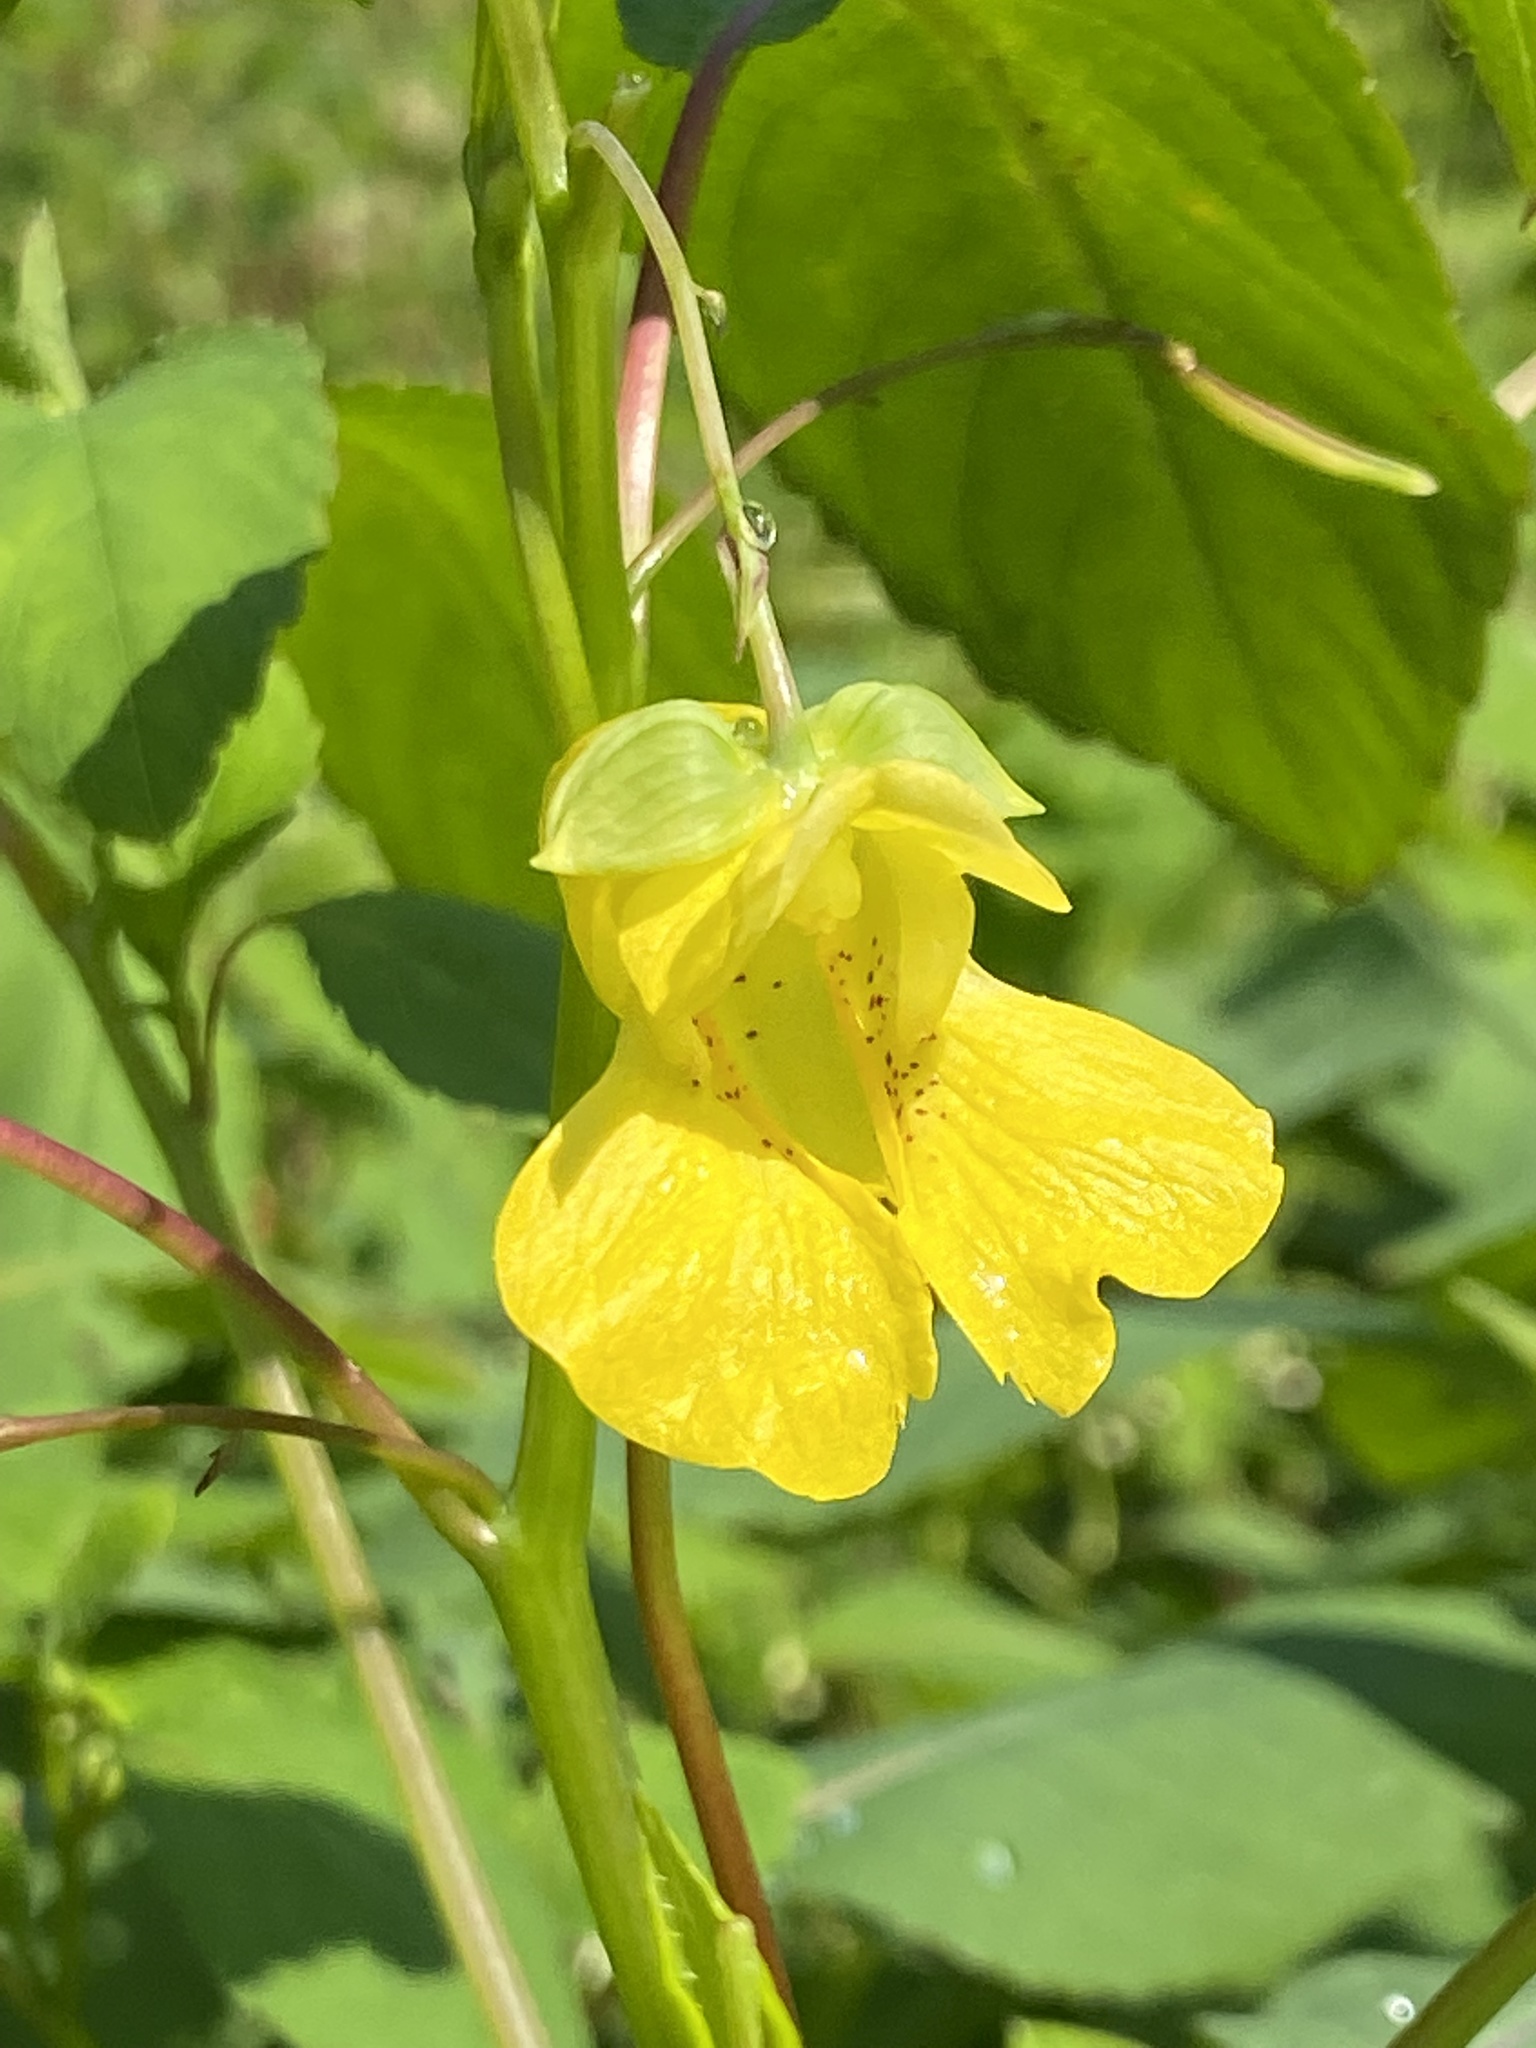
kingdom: Plantae
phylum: Tracheophyta
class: Magnoliopsida
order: Ericales
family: Balsaminaceae
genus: Impatiens
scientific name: Impatiens pallida
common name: Pale snapweed
